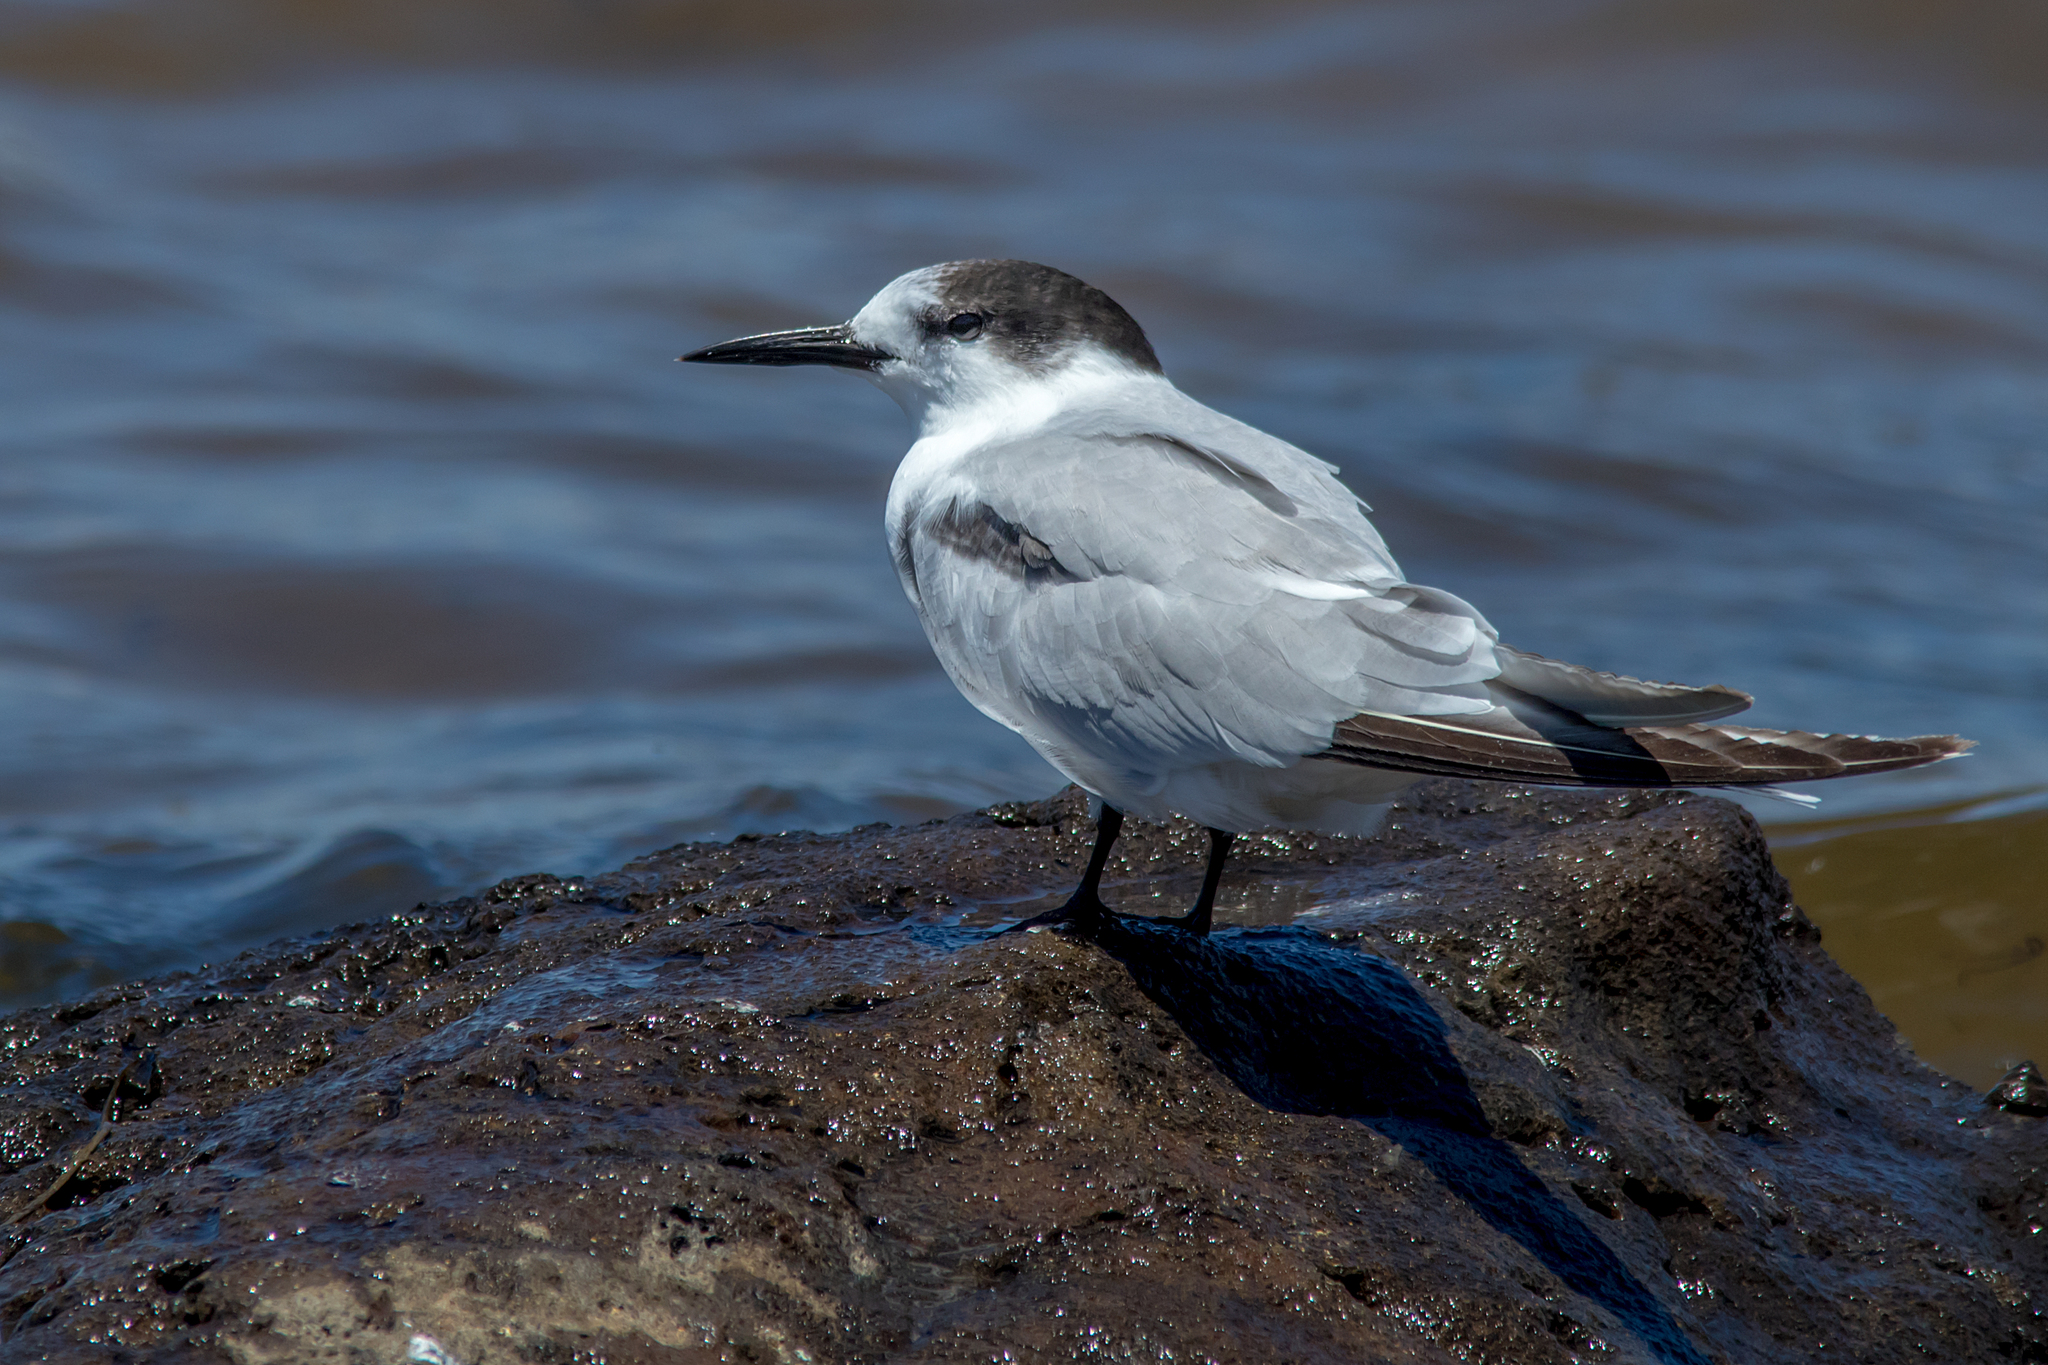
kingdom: Animalia
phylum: Chordata
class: Aves
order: Charadriiformes
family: Laridae
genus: Sterna
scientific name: Sterna hirundo
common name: Common tern
